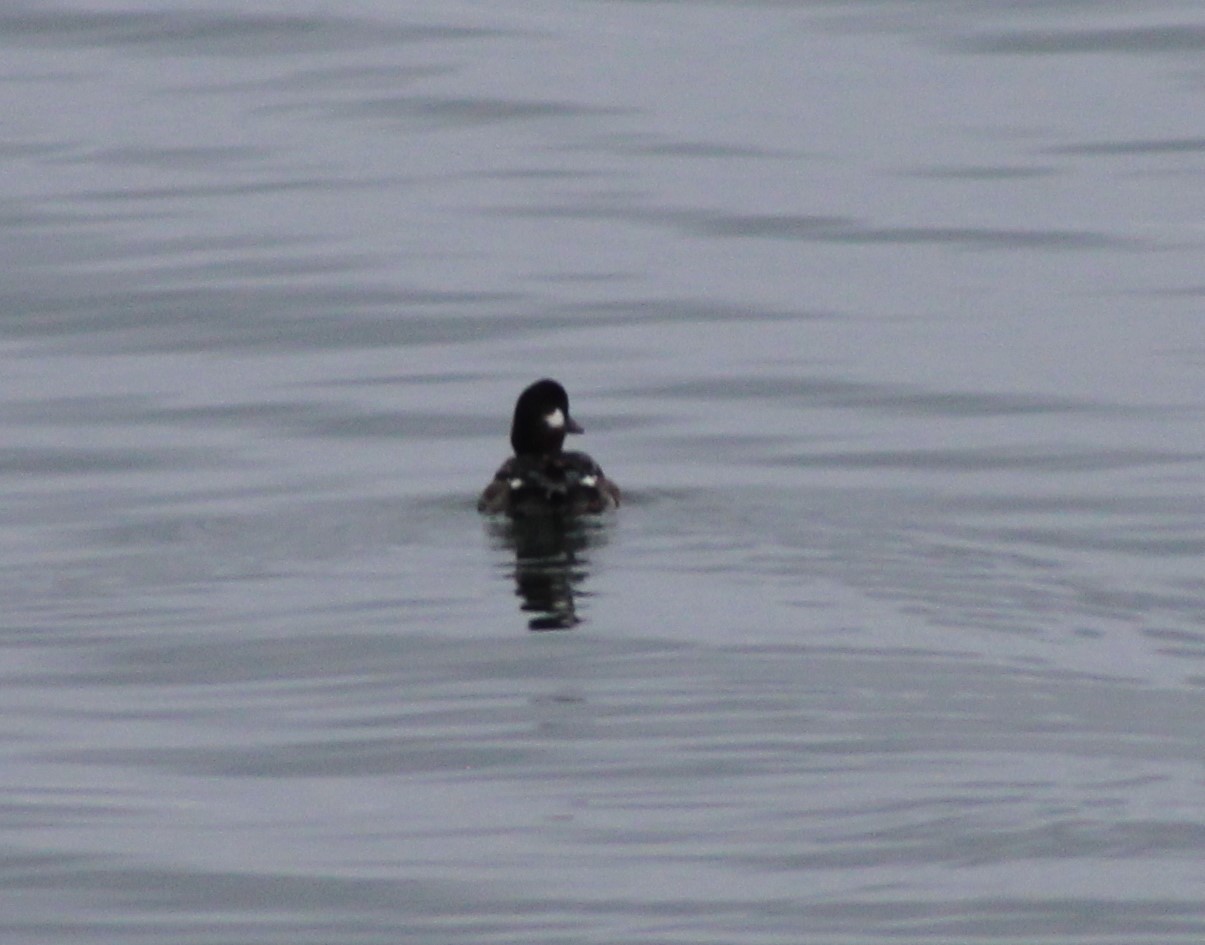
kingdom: Animalia
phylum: Chordata
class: Aves
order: Anseriformes
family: Anatidae
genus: Bucephala
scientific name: Bucephala albeola
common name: Bufflehead
